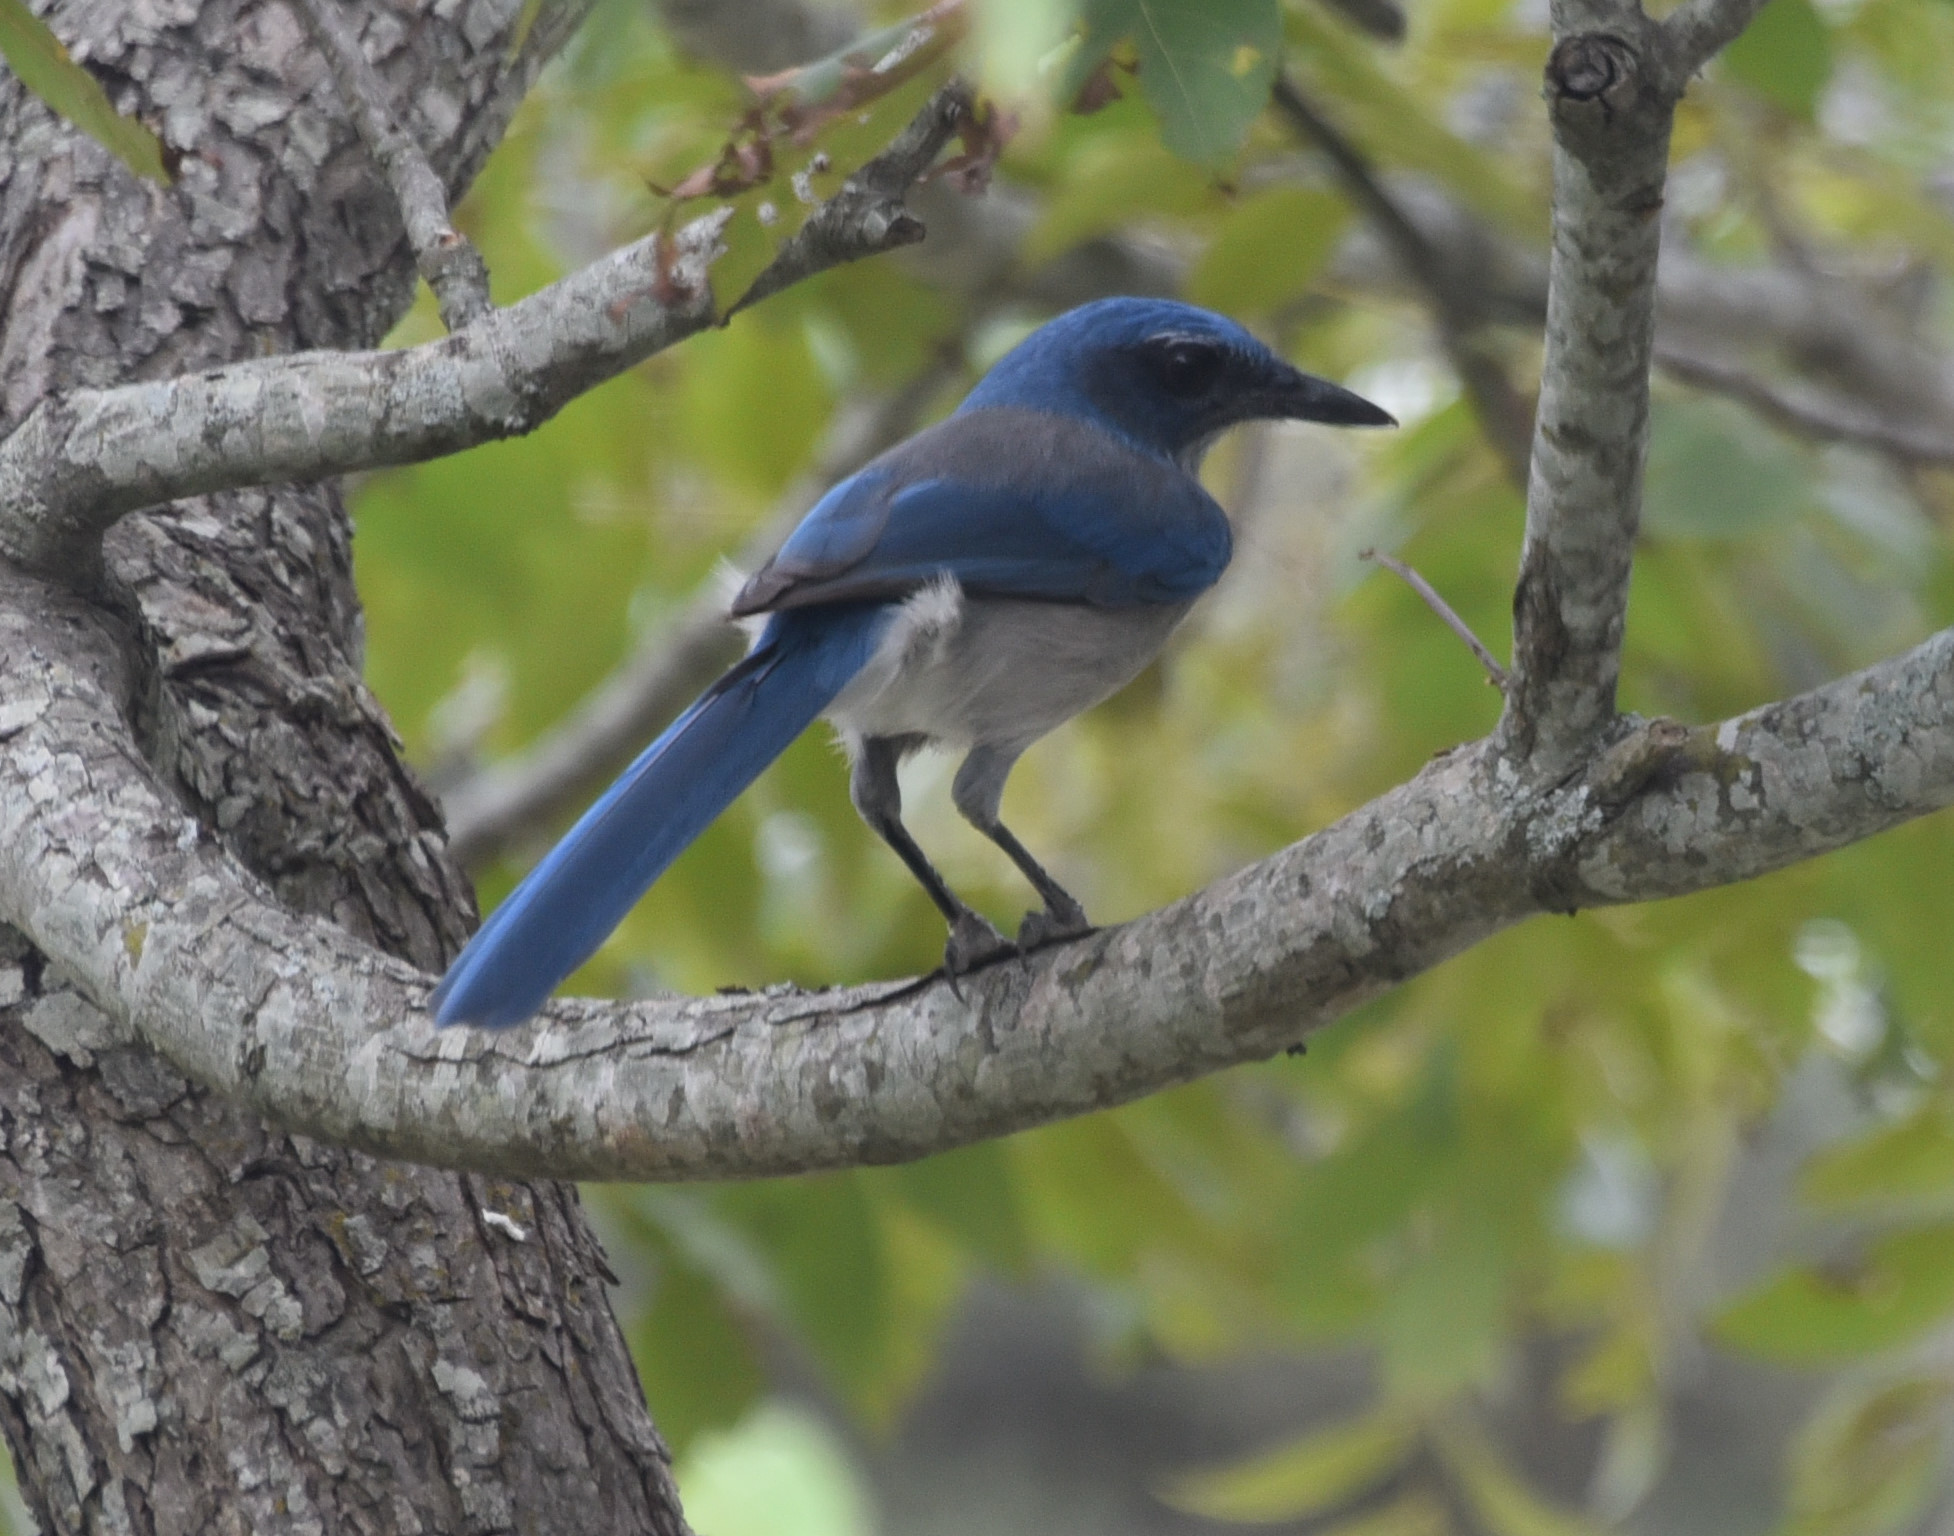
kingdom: Animalia
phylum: Chordata
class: Aves
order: Passeriformes
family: Corvidae
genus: Aphelocoma
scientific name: Aphelocoma woodhouseii
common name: Woodhouse's scrub-jay
